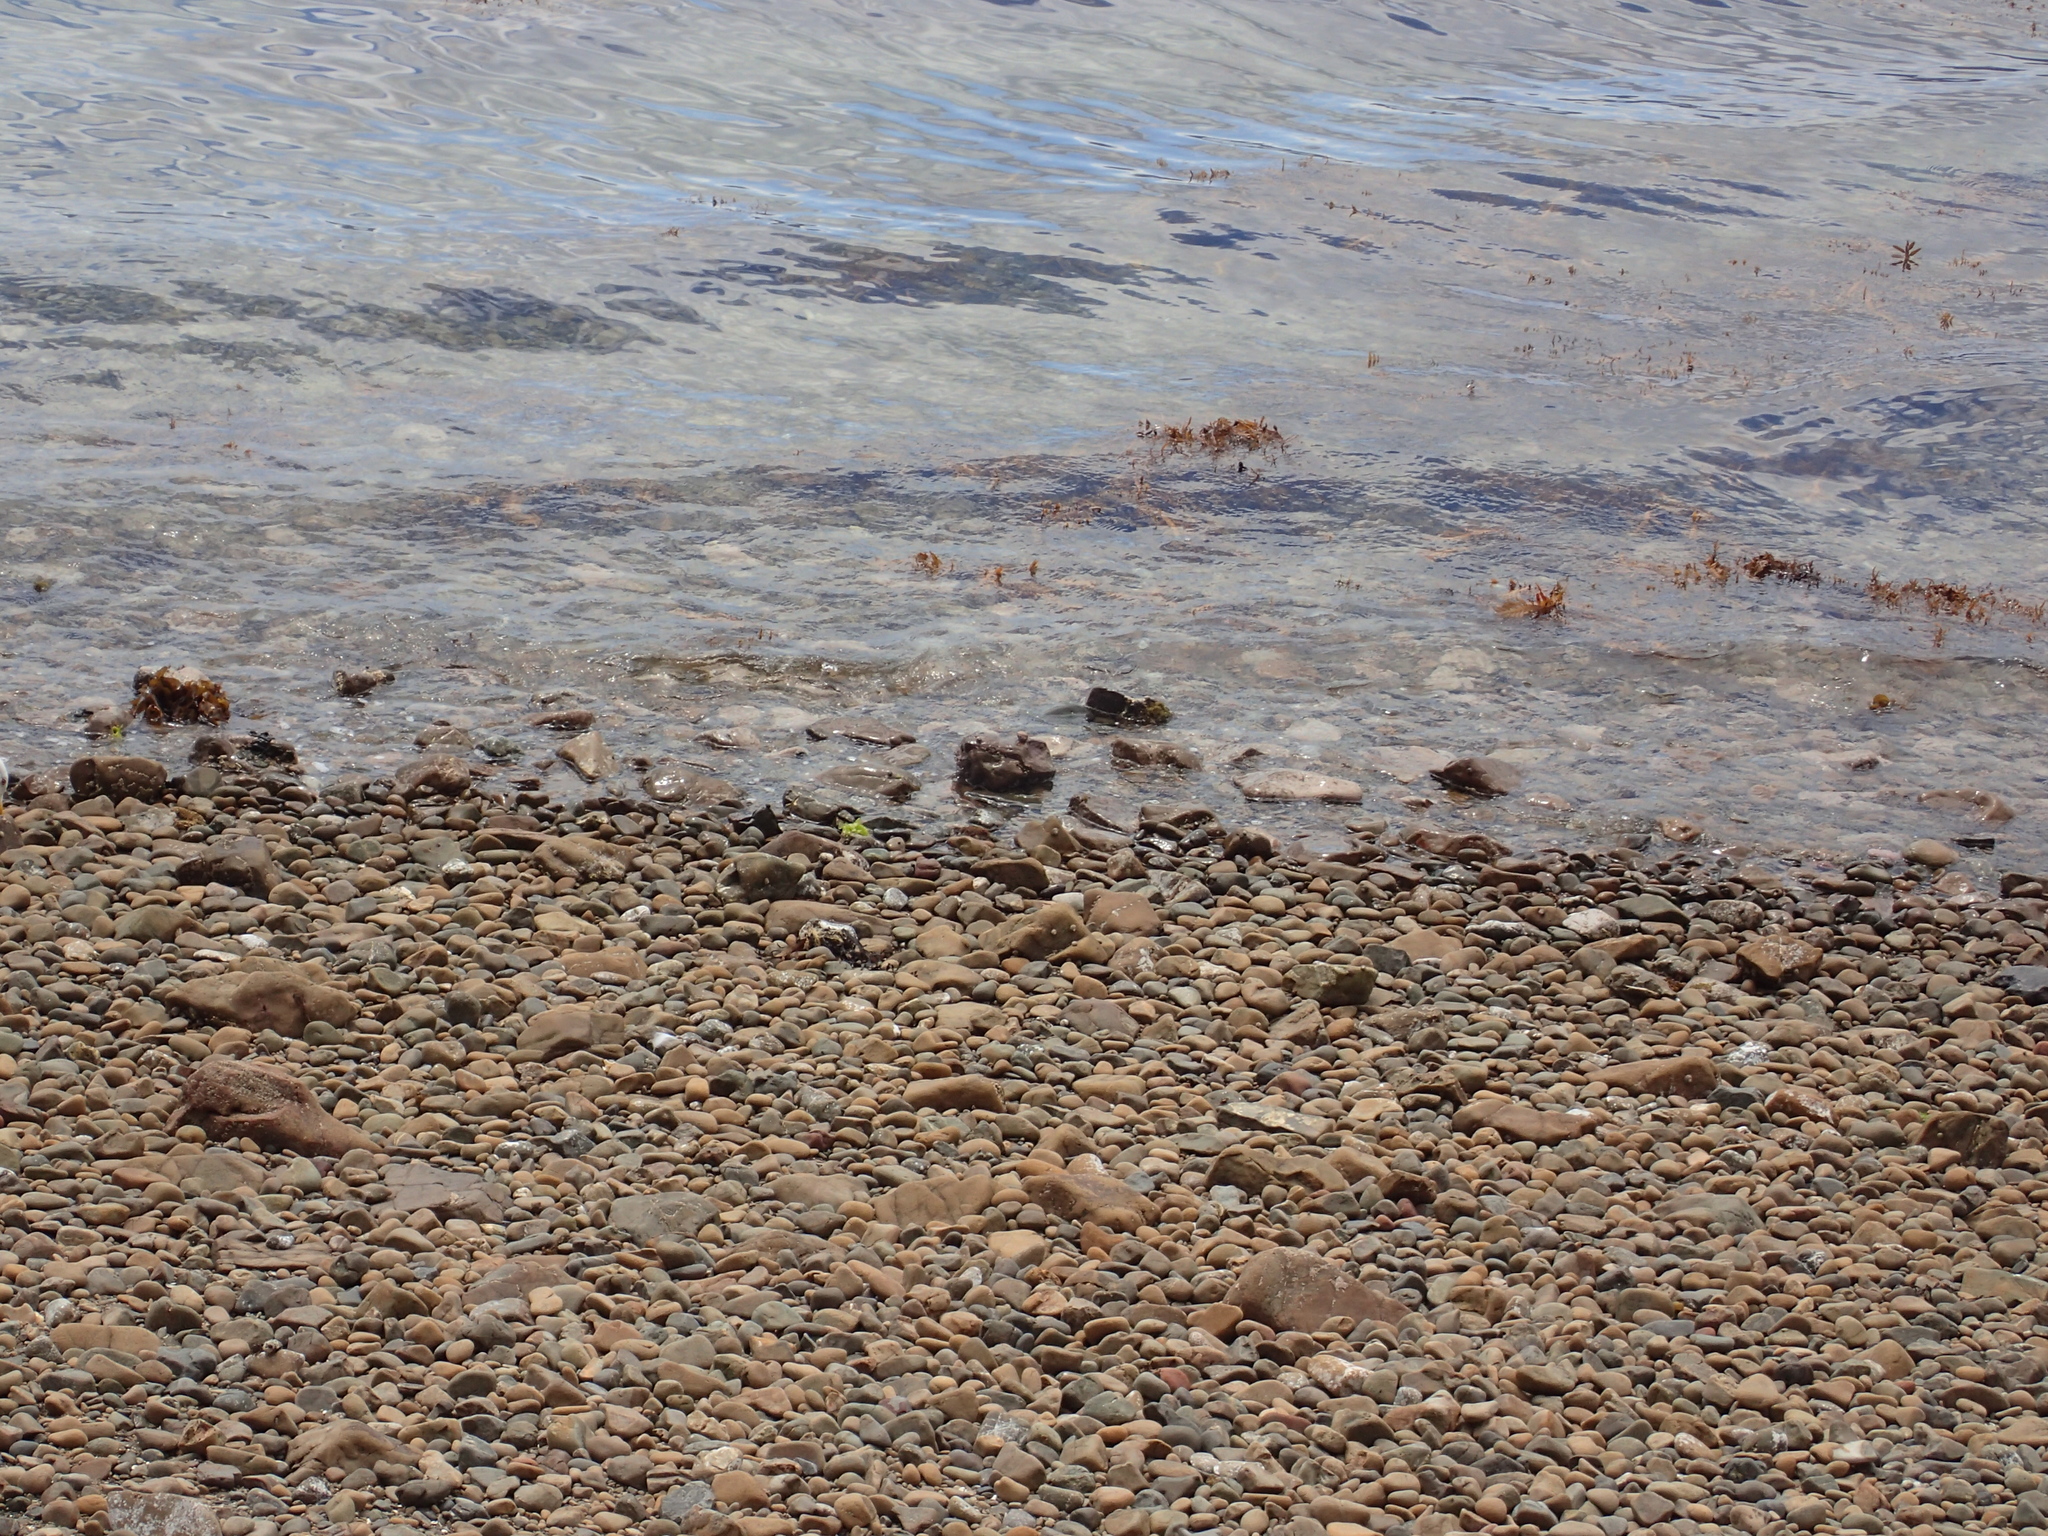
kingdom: Animalia
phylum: Chordata
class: Aves
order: Charadriiformes
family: Laridae
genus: Larus
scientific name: Larus dominicanus
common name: Kelp gull
